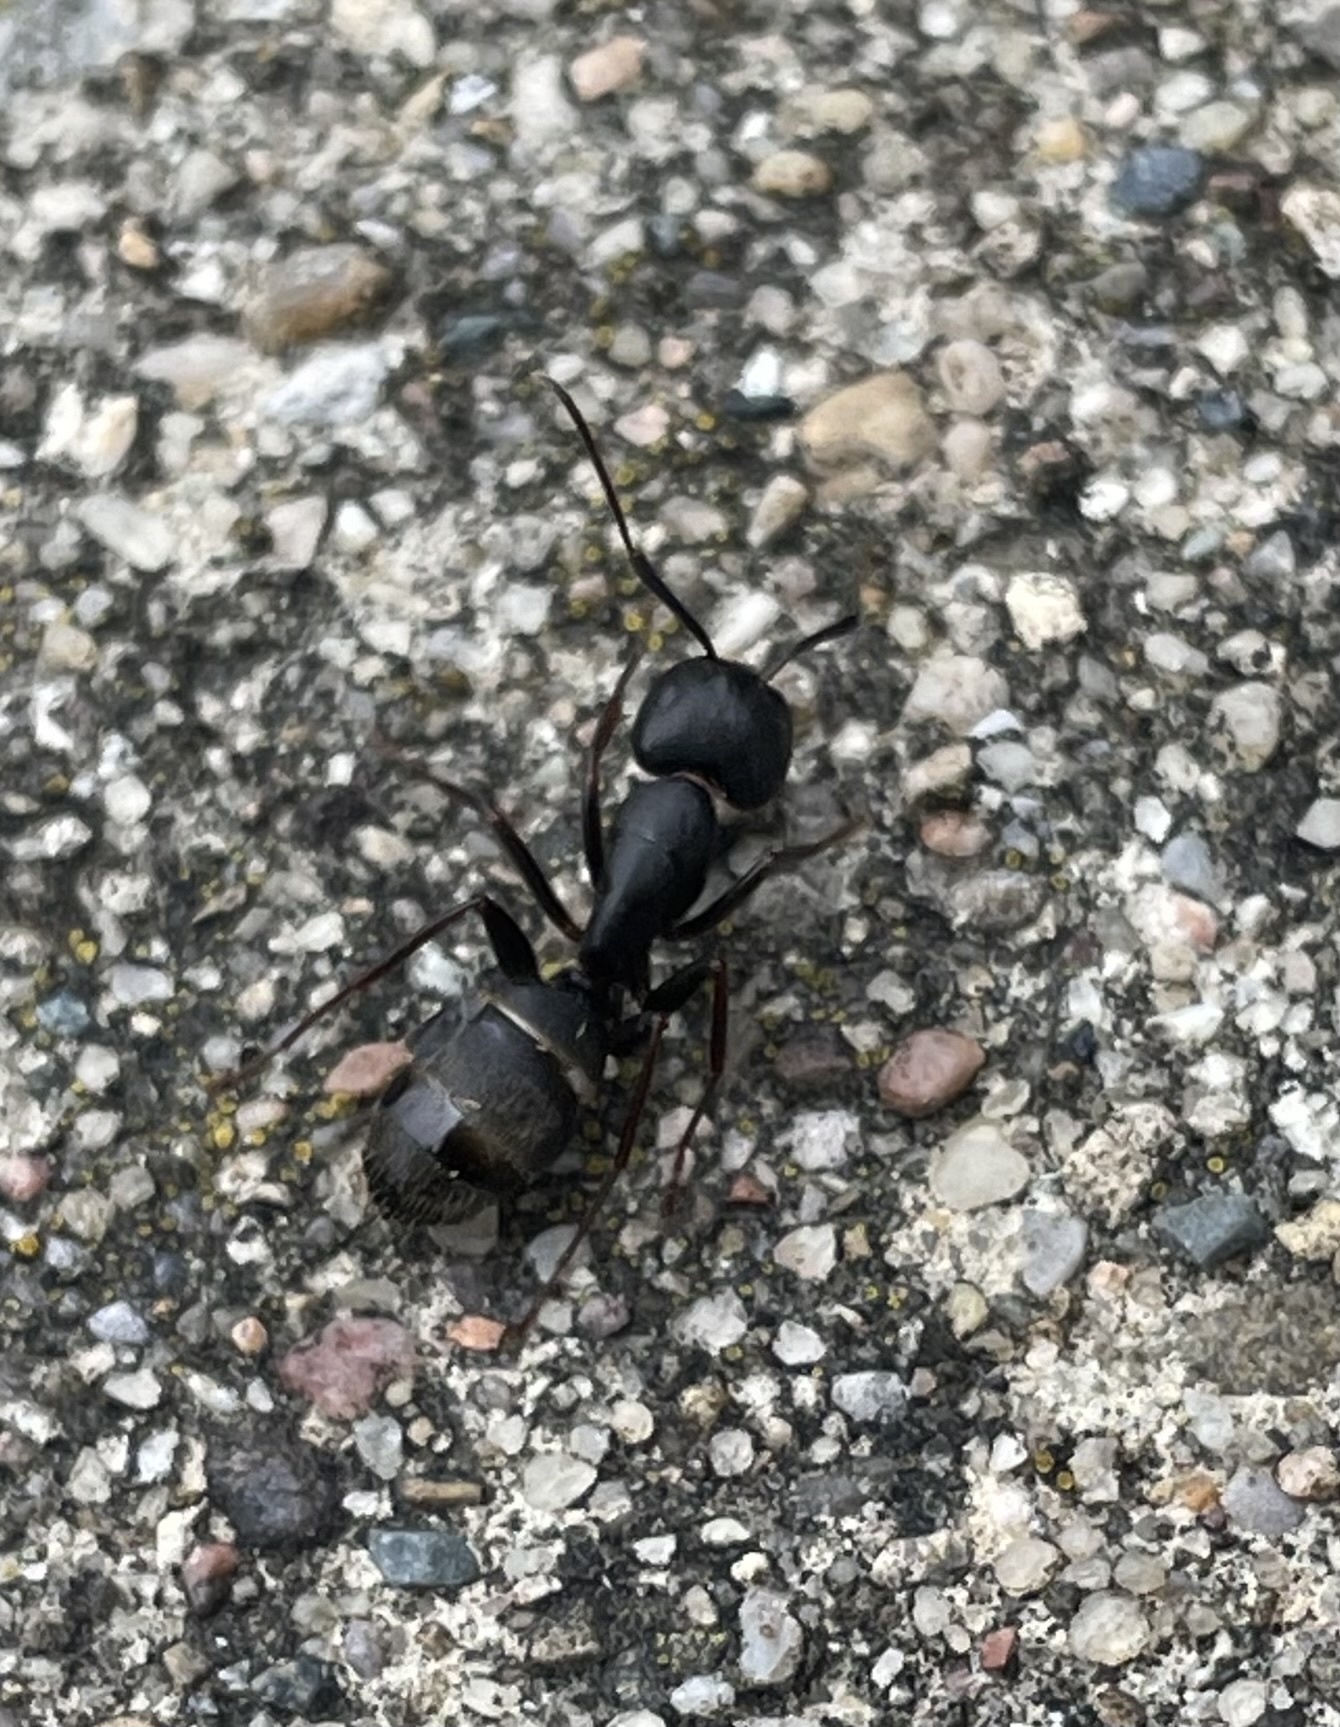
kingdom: Animalia
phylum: Arthropoda
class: Insecta
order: Hymenoptera
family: Formicidae
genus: Camponotus
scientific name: Camponotus pennsylvanicus
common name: Black carpenter ant
